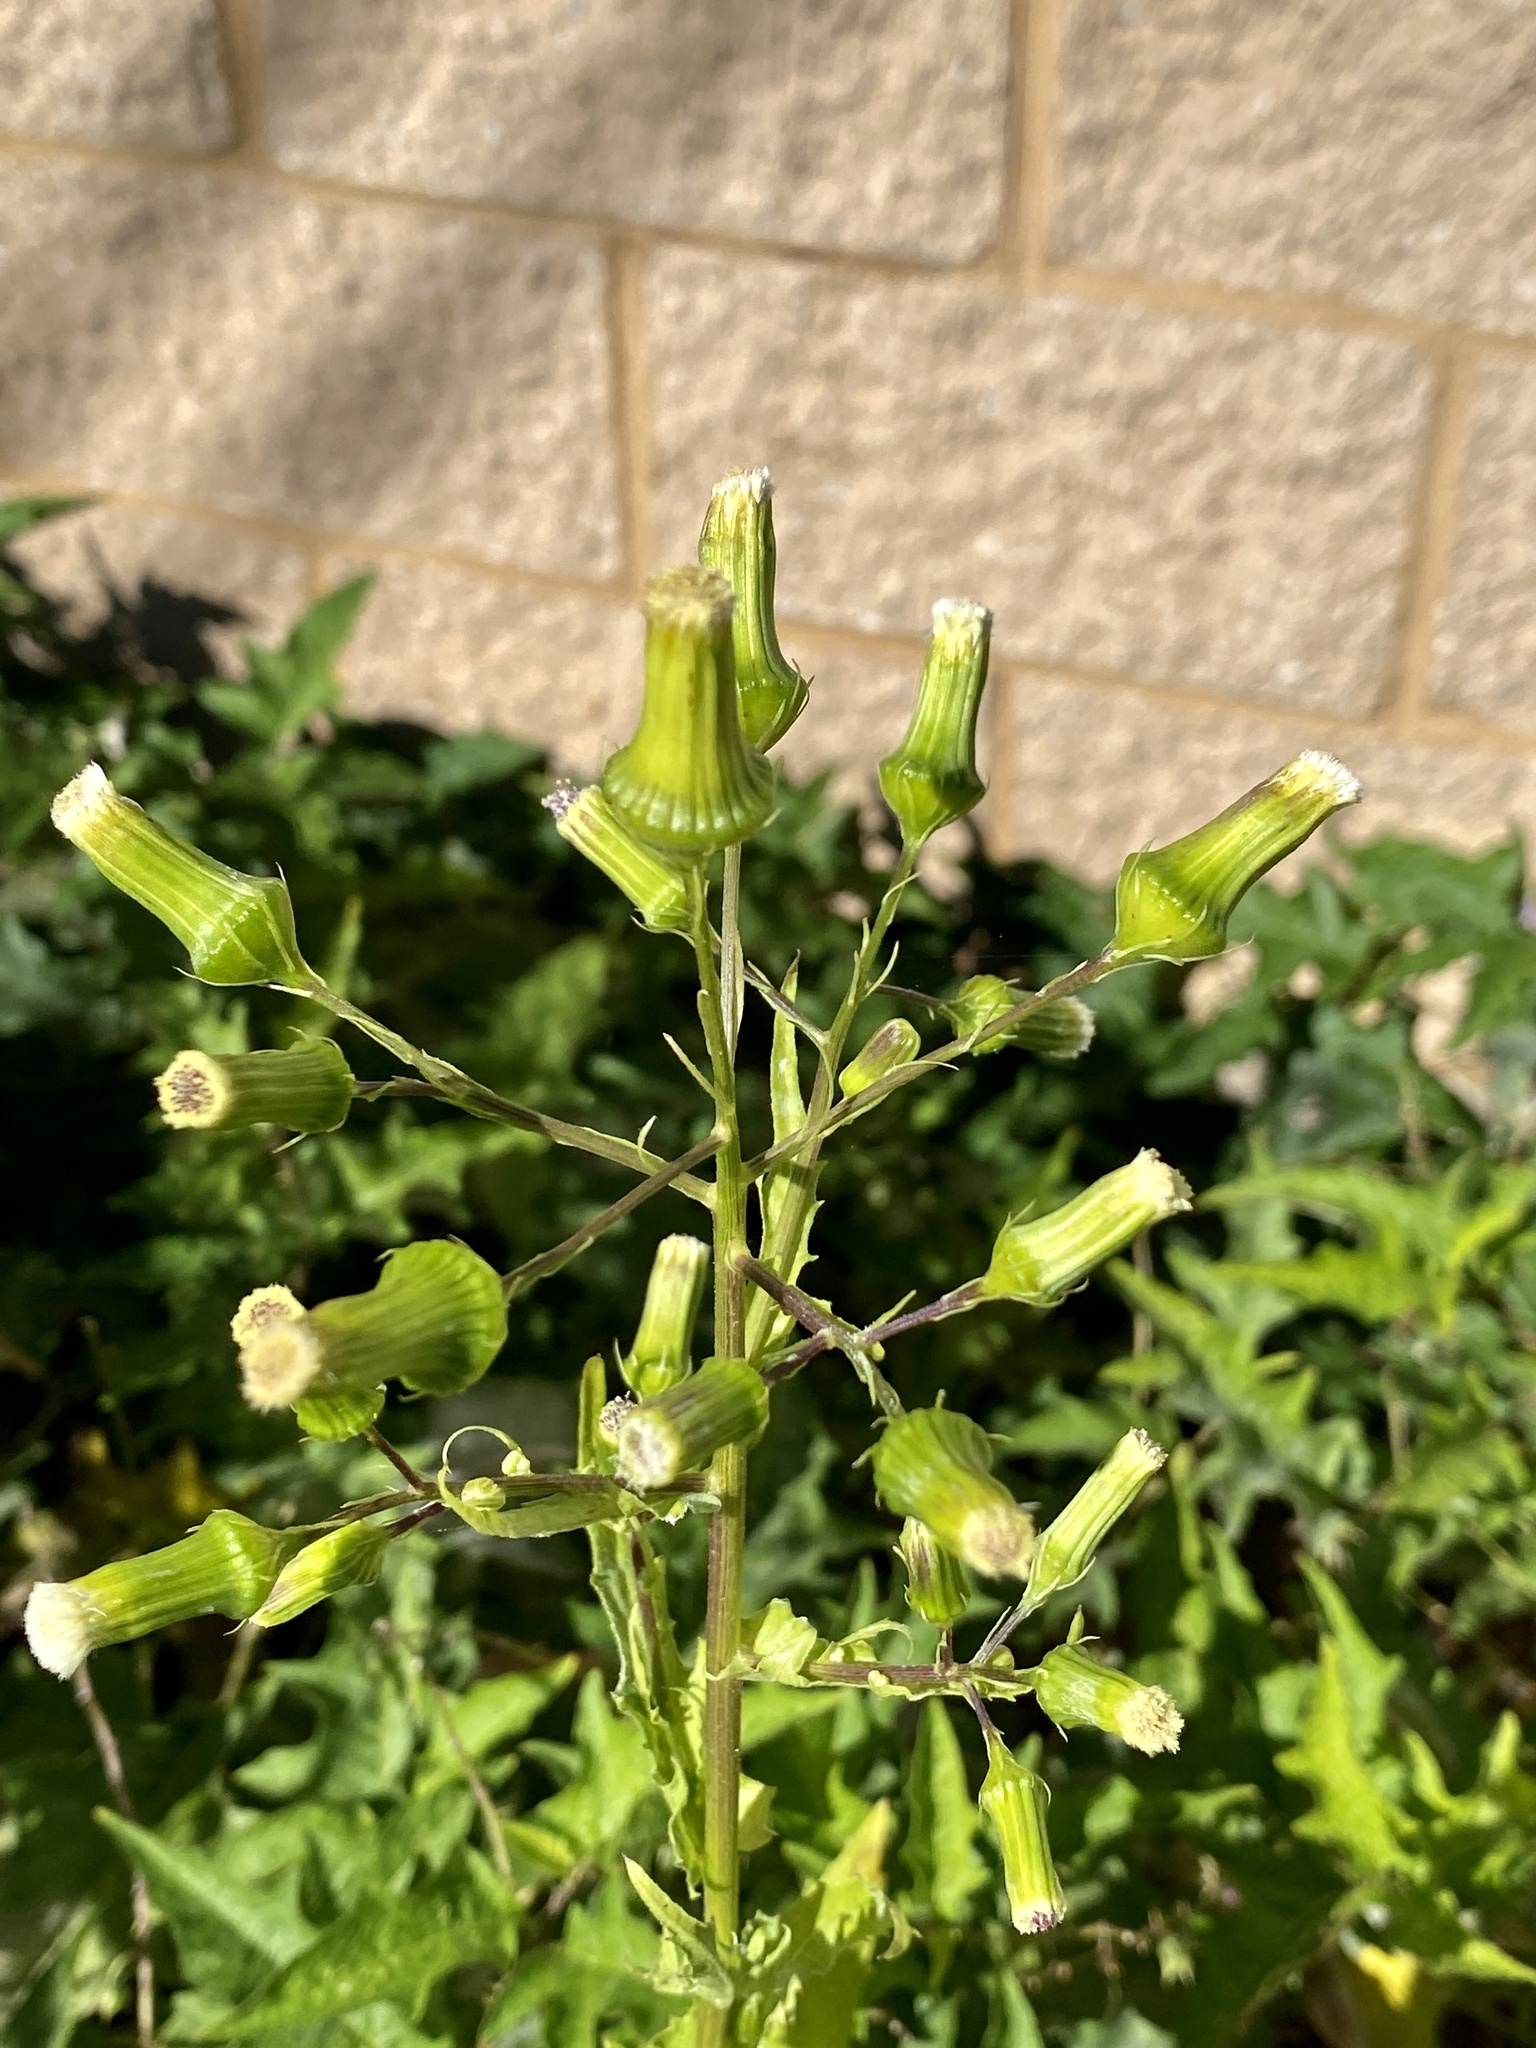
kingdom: Plantae
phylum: Tracheophyta
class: Magnoliopsida
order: Asterales
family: Asteraceae
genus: Erechtites
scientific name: Erechtites hieraciifolius
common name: American burnweed
